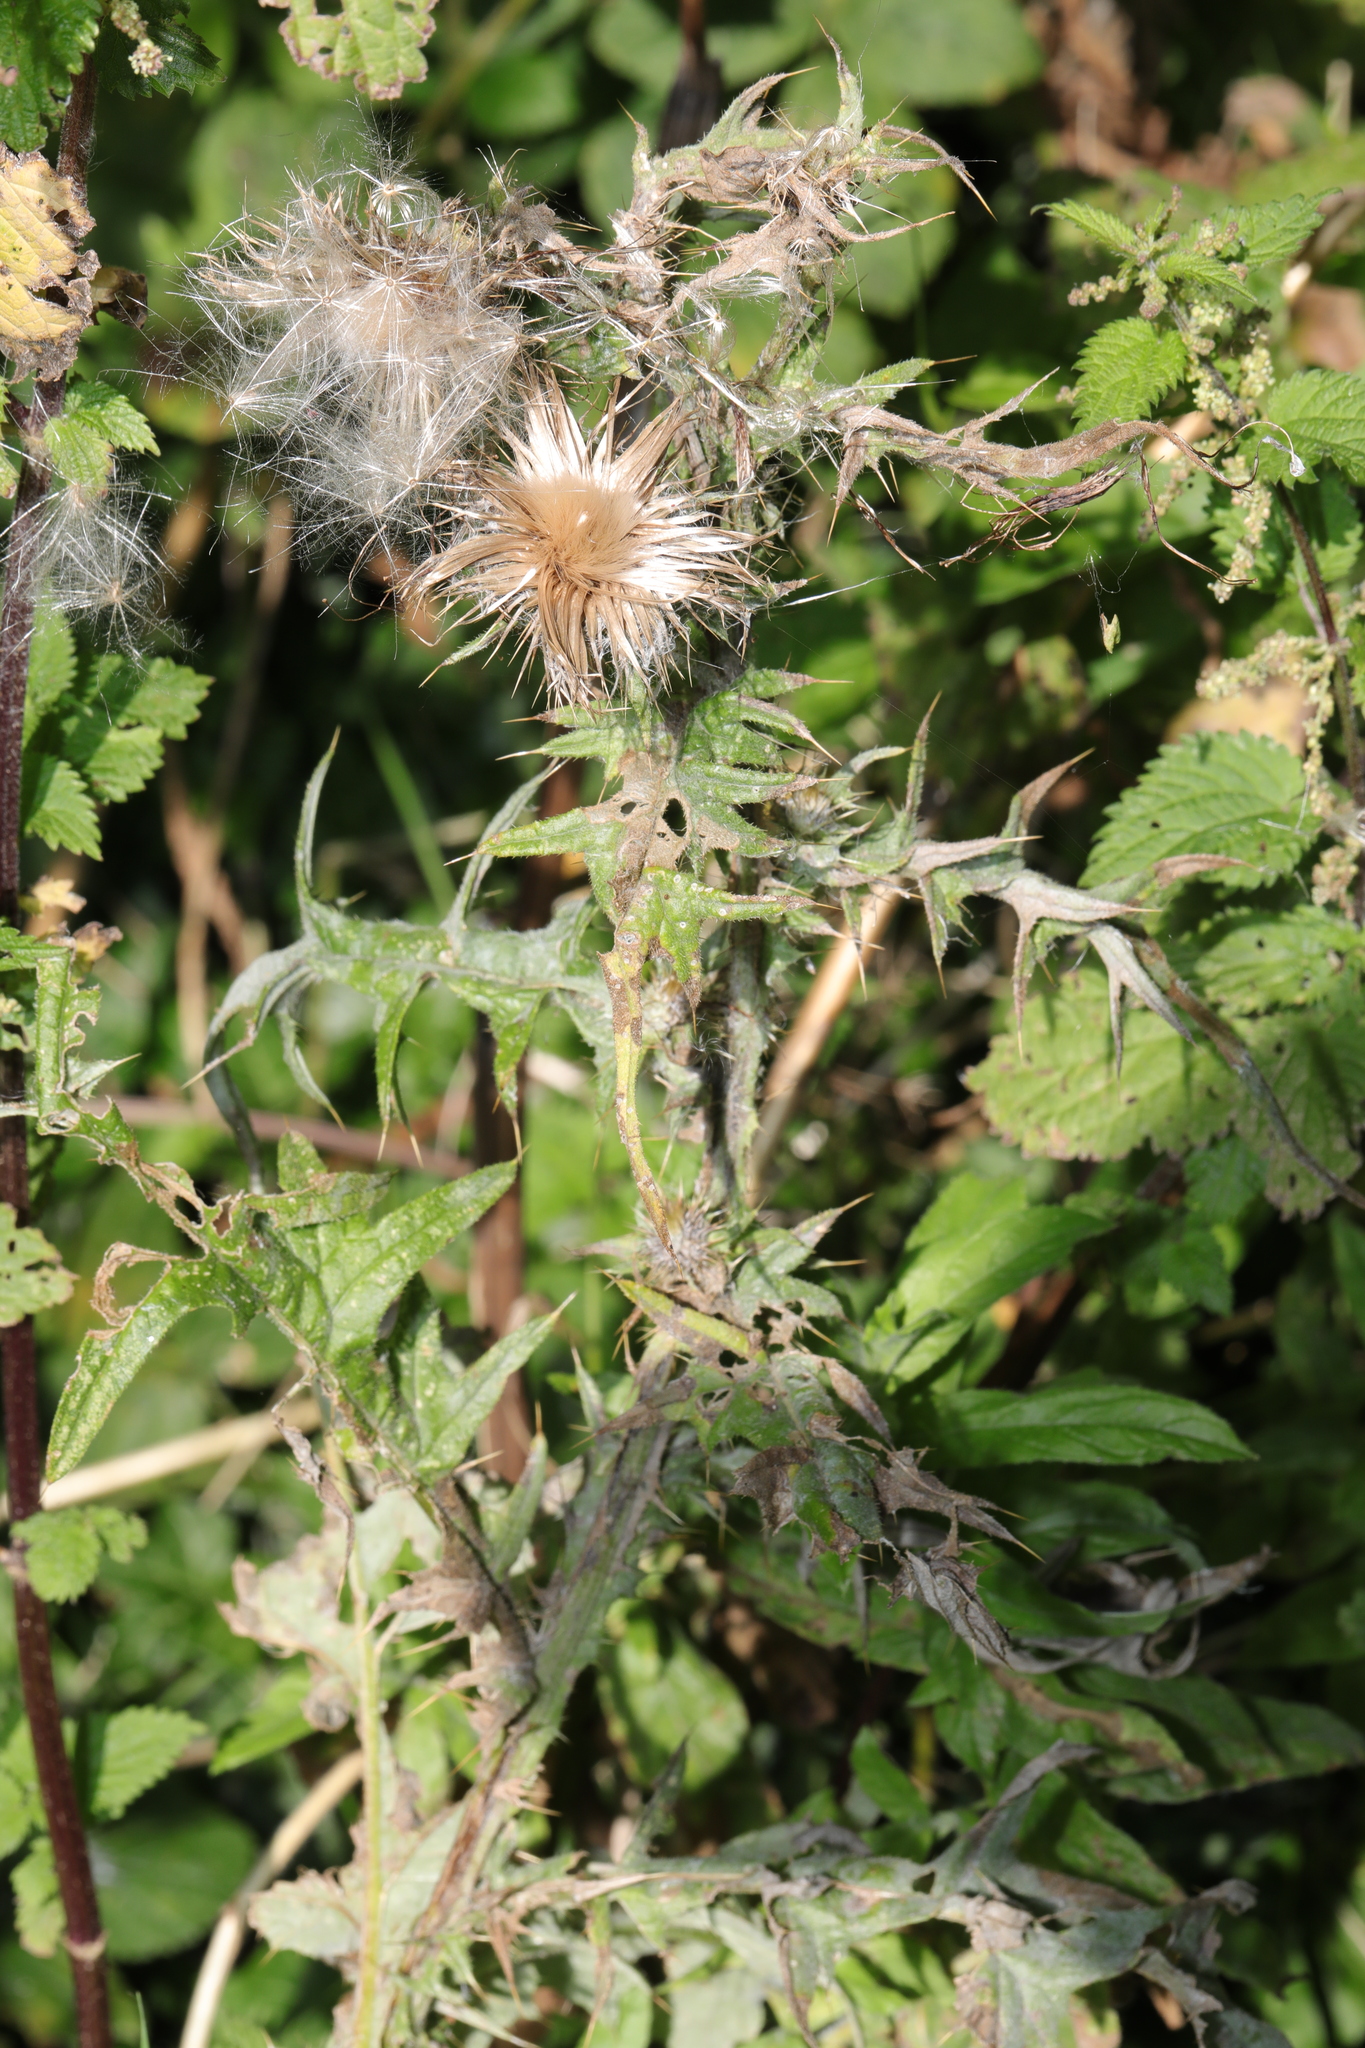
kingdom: Plantae
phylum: Tracheophyta
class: Magnoliopsida
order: Asterales
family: Asteraceae
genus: Cirsium
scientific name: Cirsium vulgare
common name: Bull thistle
